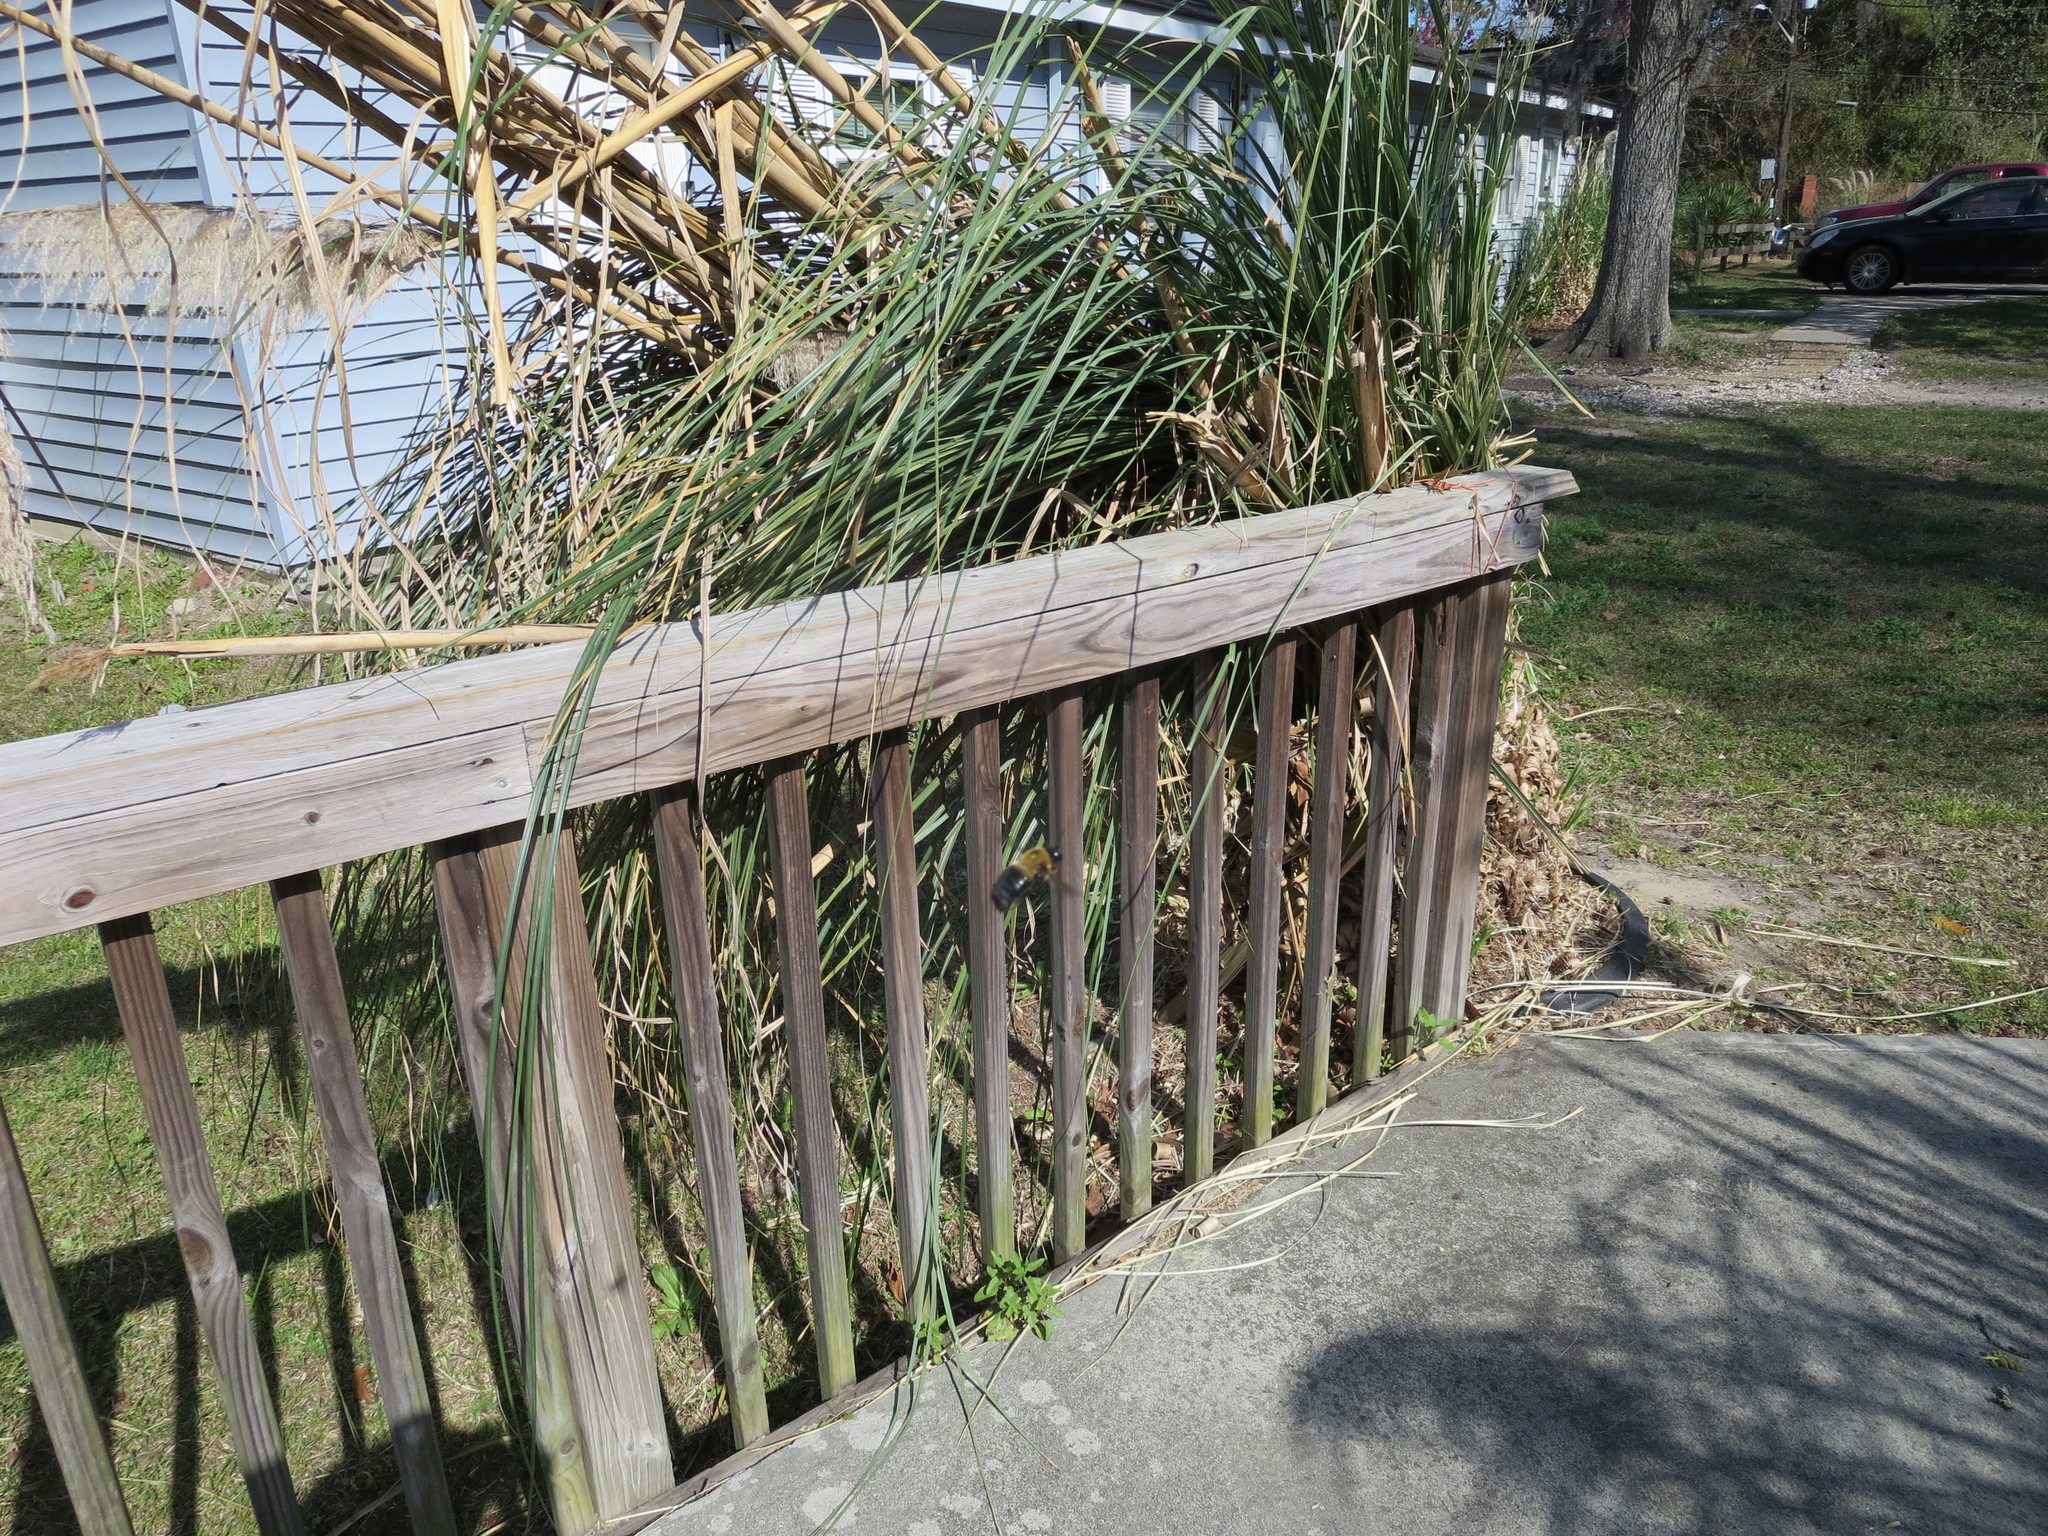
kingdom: Animalia
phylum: Arthropoda
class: Insecta
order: Hymenoptera
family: Apidae
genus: Xylocopa
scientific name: Xylocopa virginica
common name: Carpenter bee
